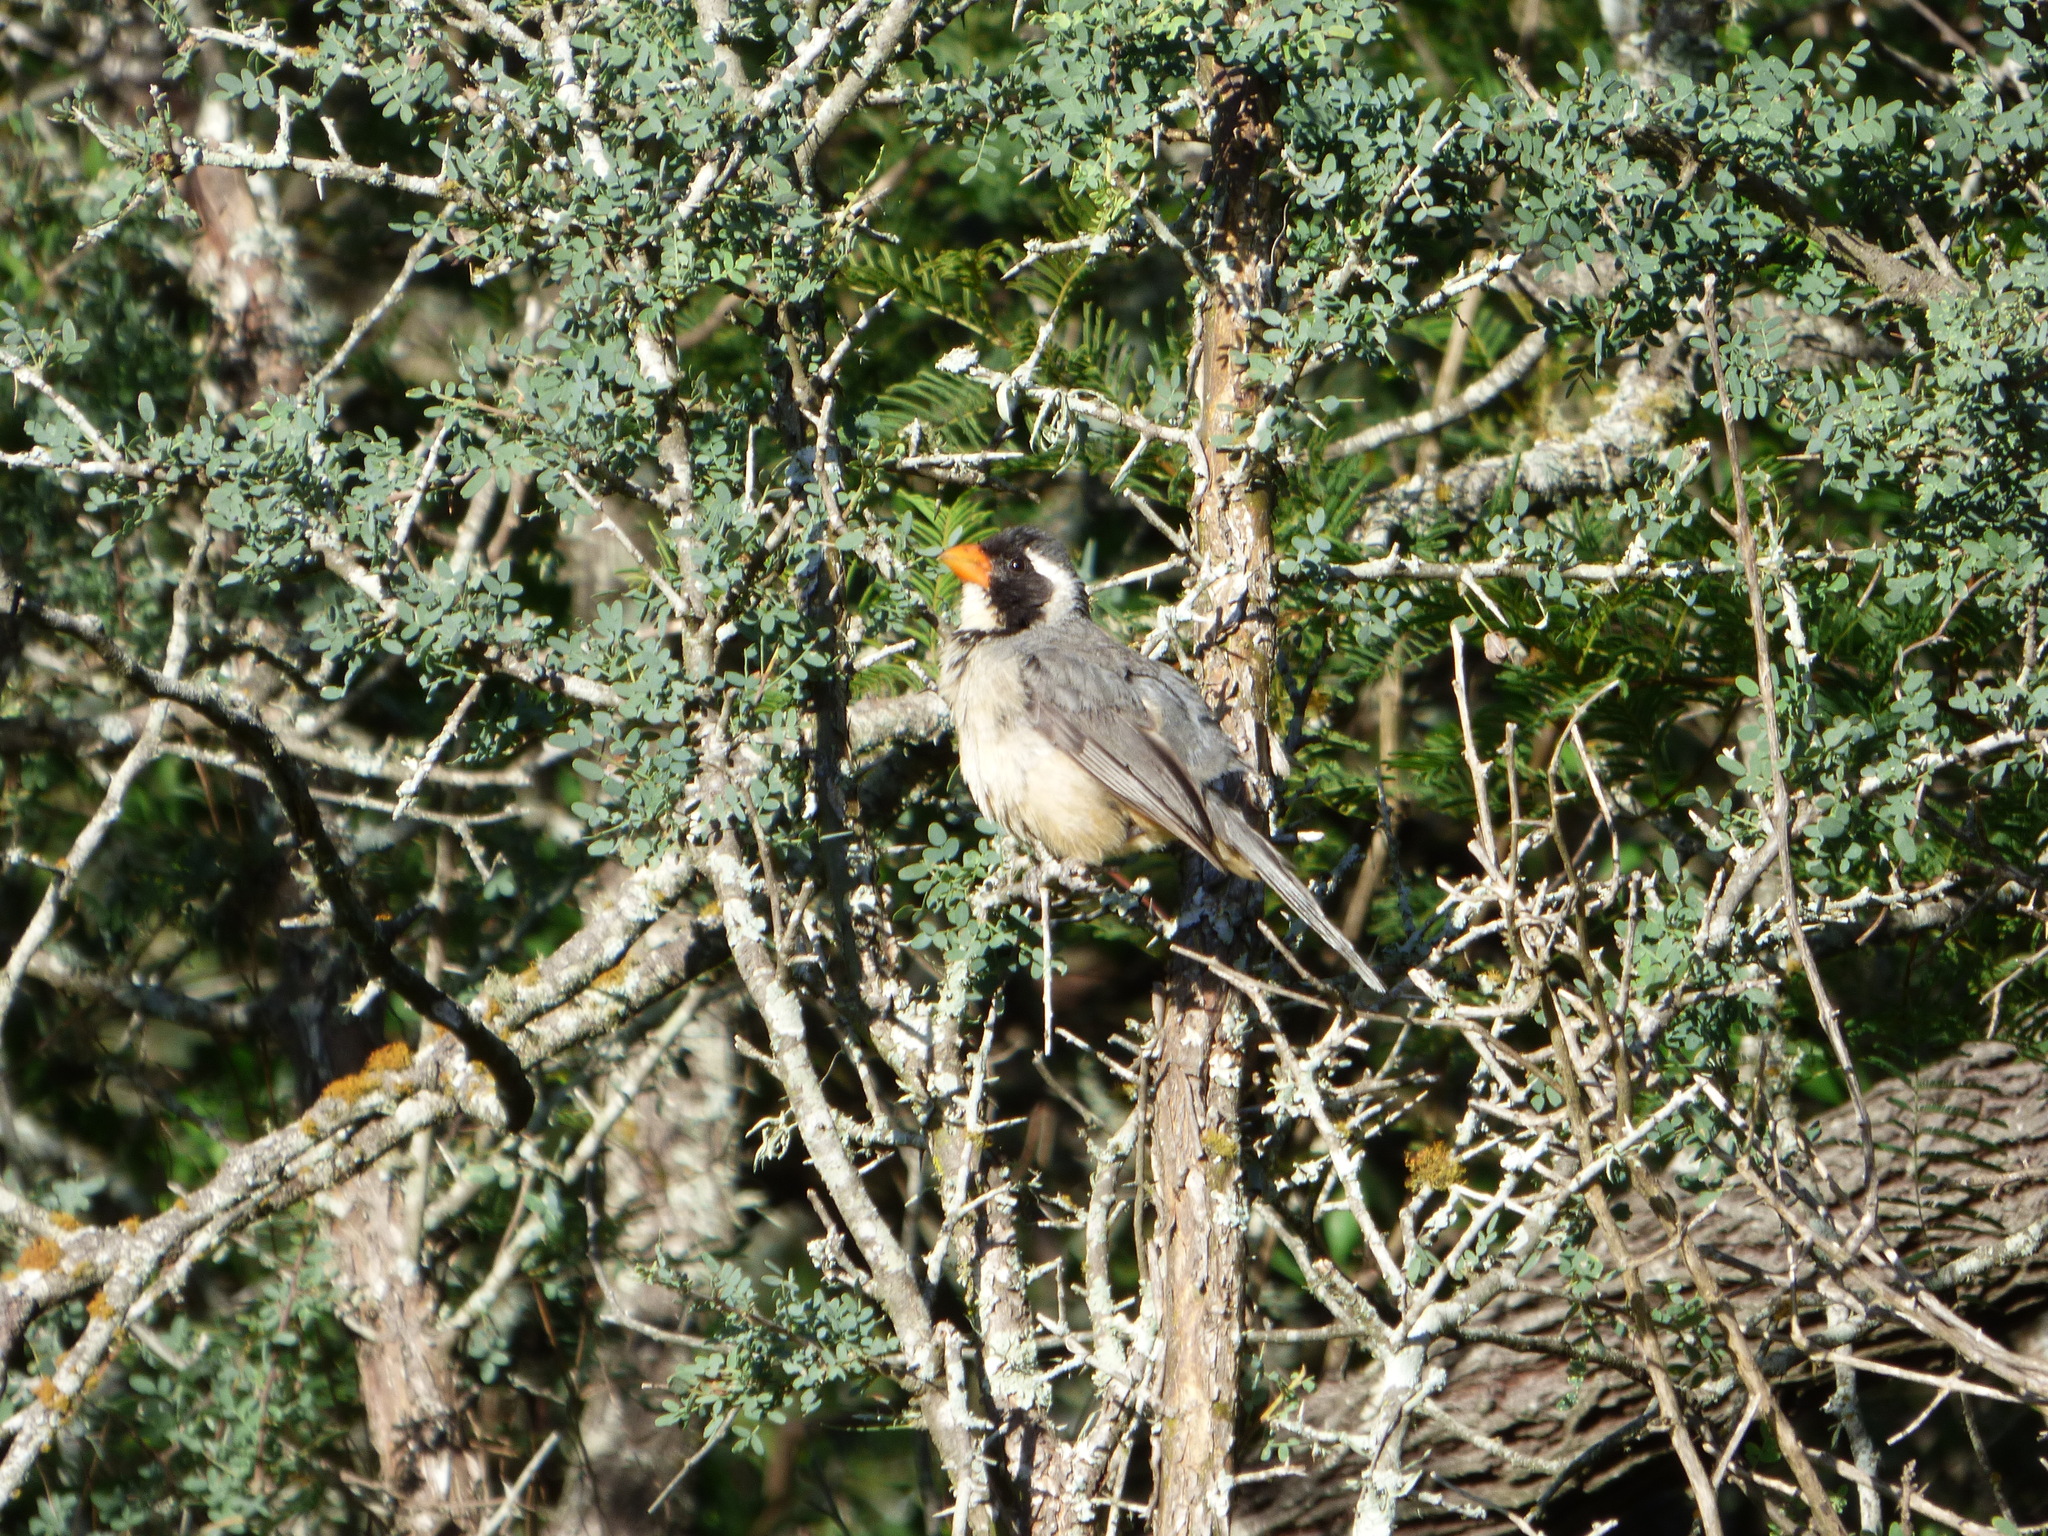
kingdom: Animalia
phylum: Chordata
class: Aves
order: Passeriformes
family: Thraupidae
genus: Saltator
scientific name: Saltator aurantiirostris
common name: Golden-billed saltator
